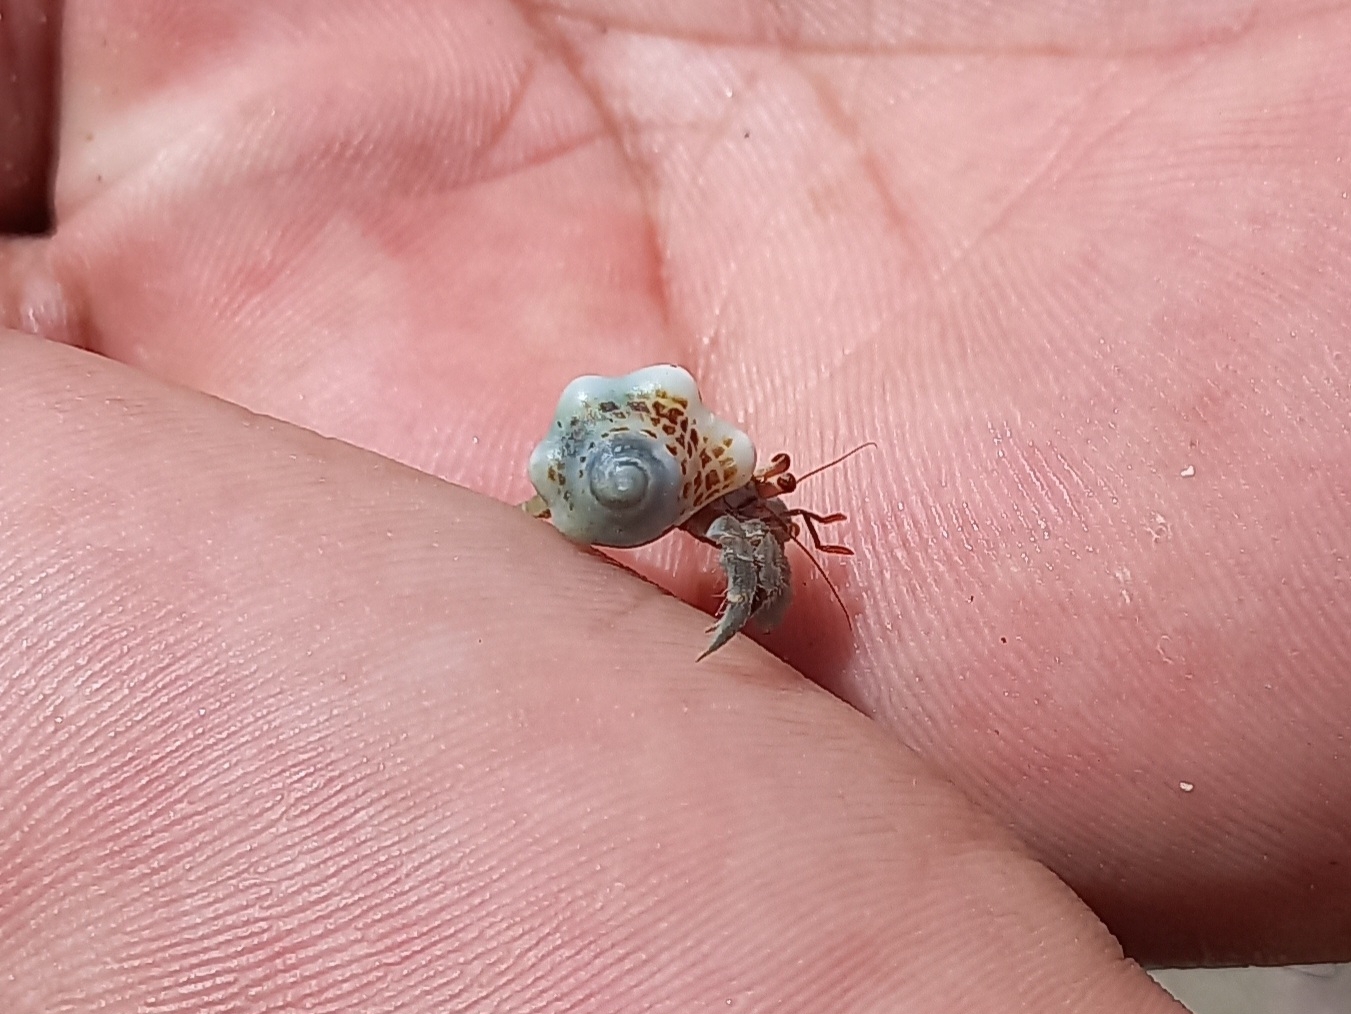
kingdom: Animalia
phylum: Arthropoda
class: Malacostraca
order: Decapoda
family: Coenobitidae
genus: Coenobita
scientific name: Coenobita compressus
